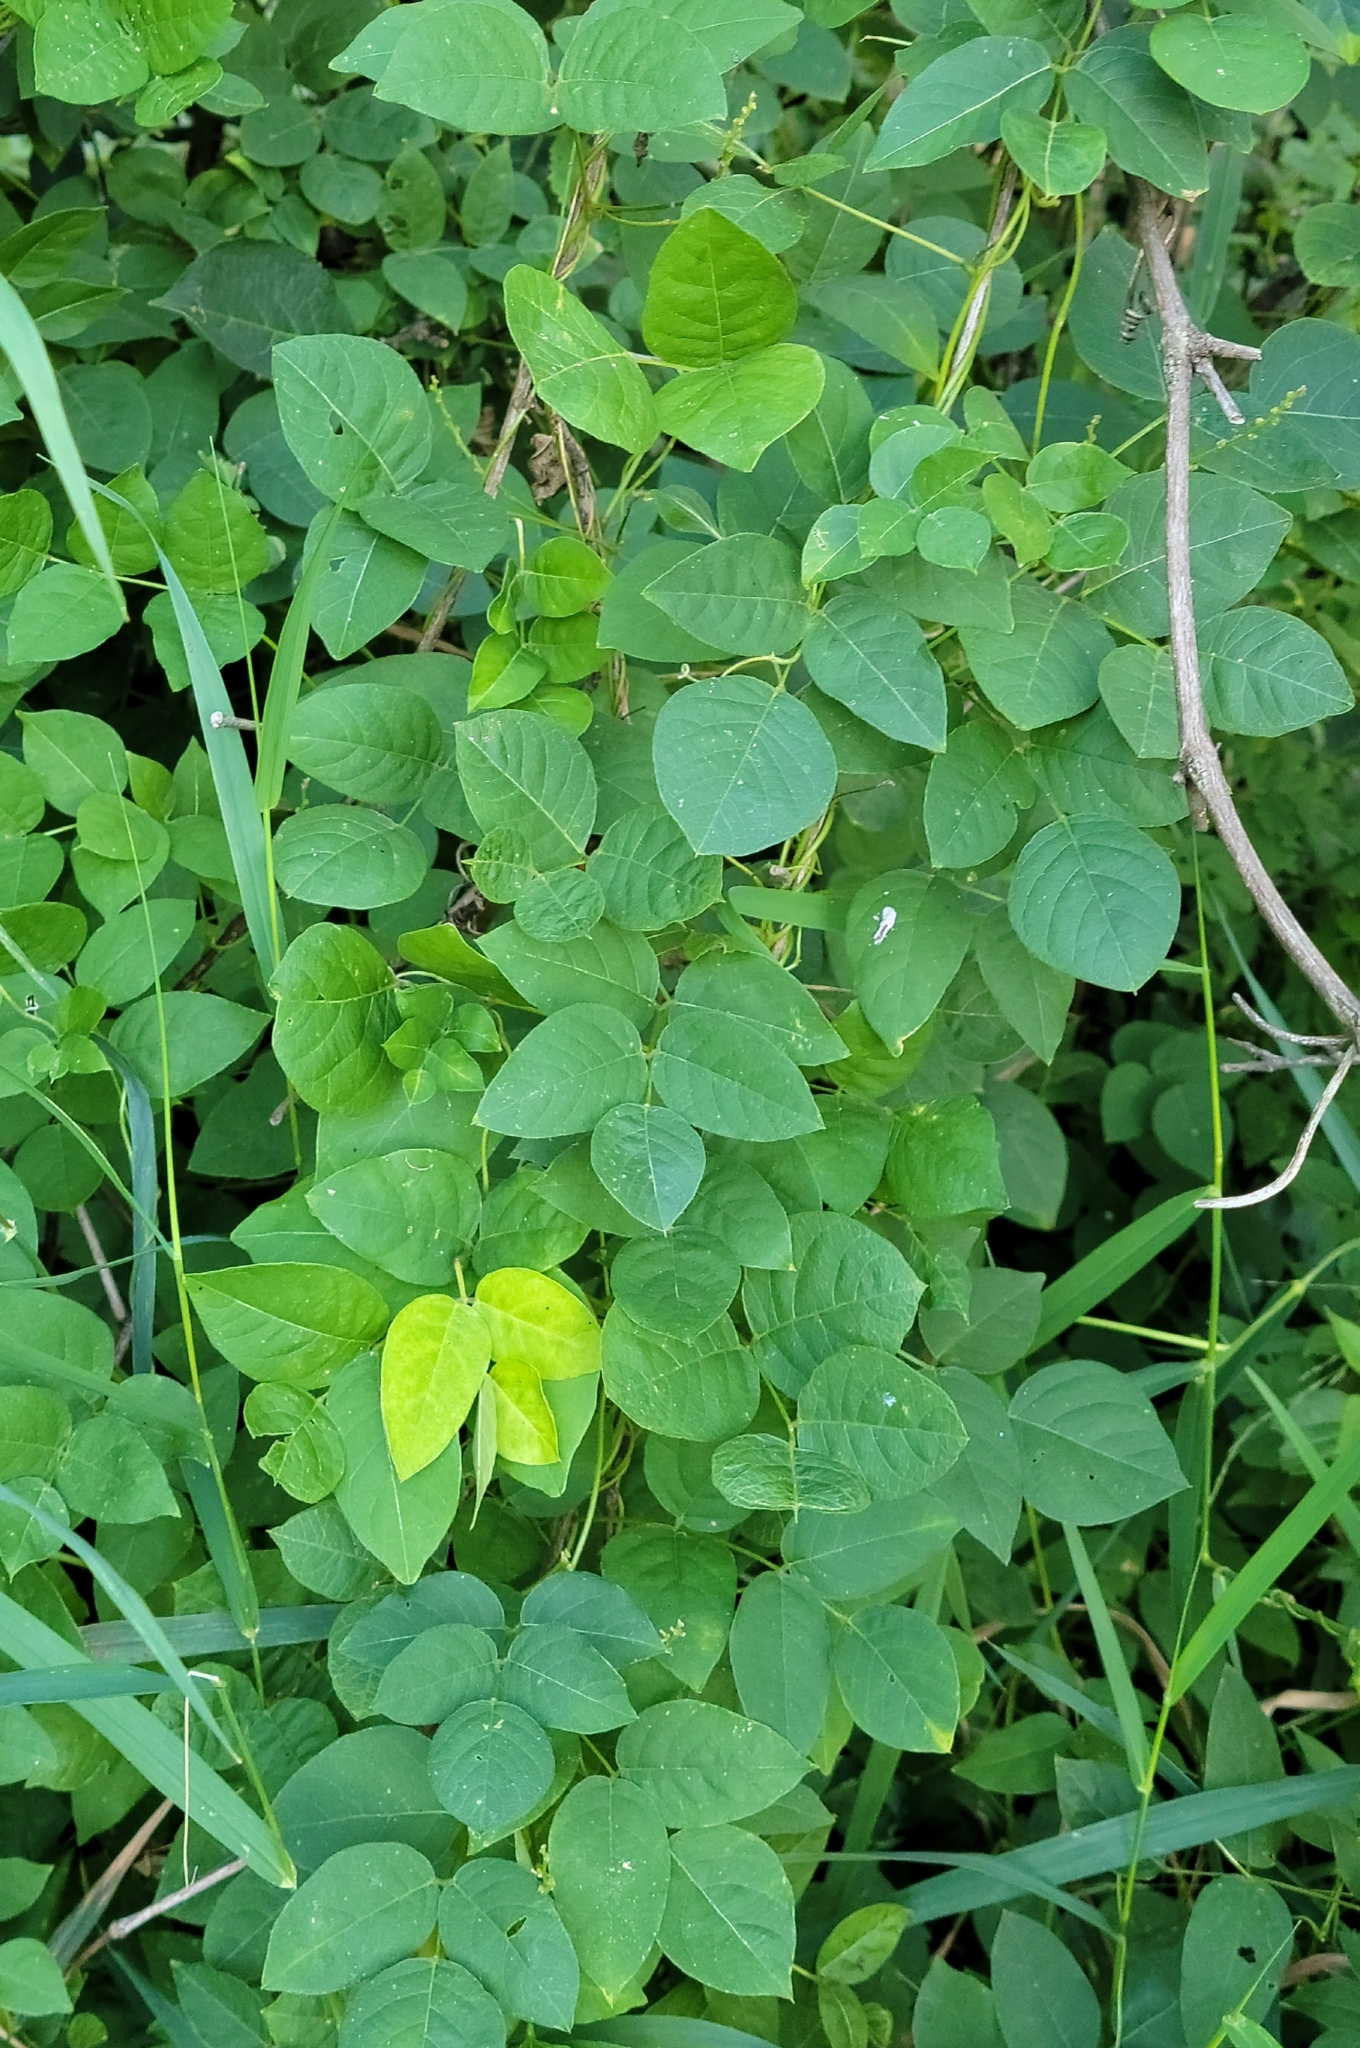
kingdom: Plantae
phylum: Tracheophyta
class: Magnoliopsida
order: Fabales
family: Fabaceae
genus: Apios
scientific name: Apios americana
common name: American potato-bean
